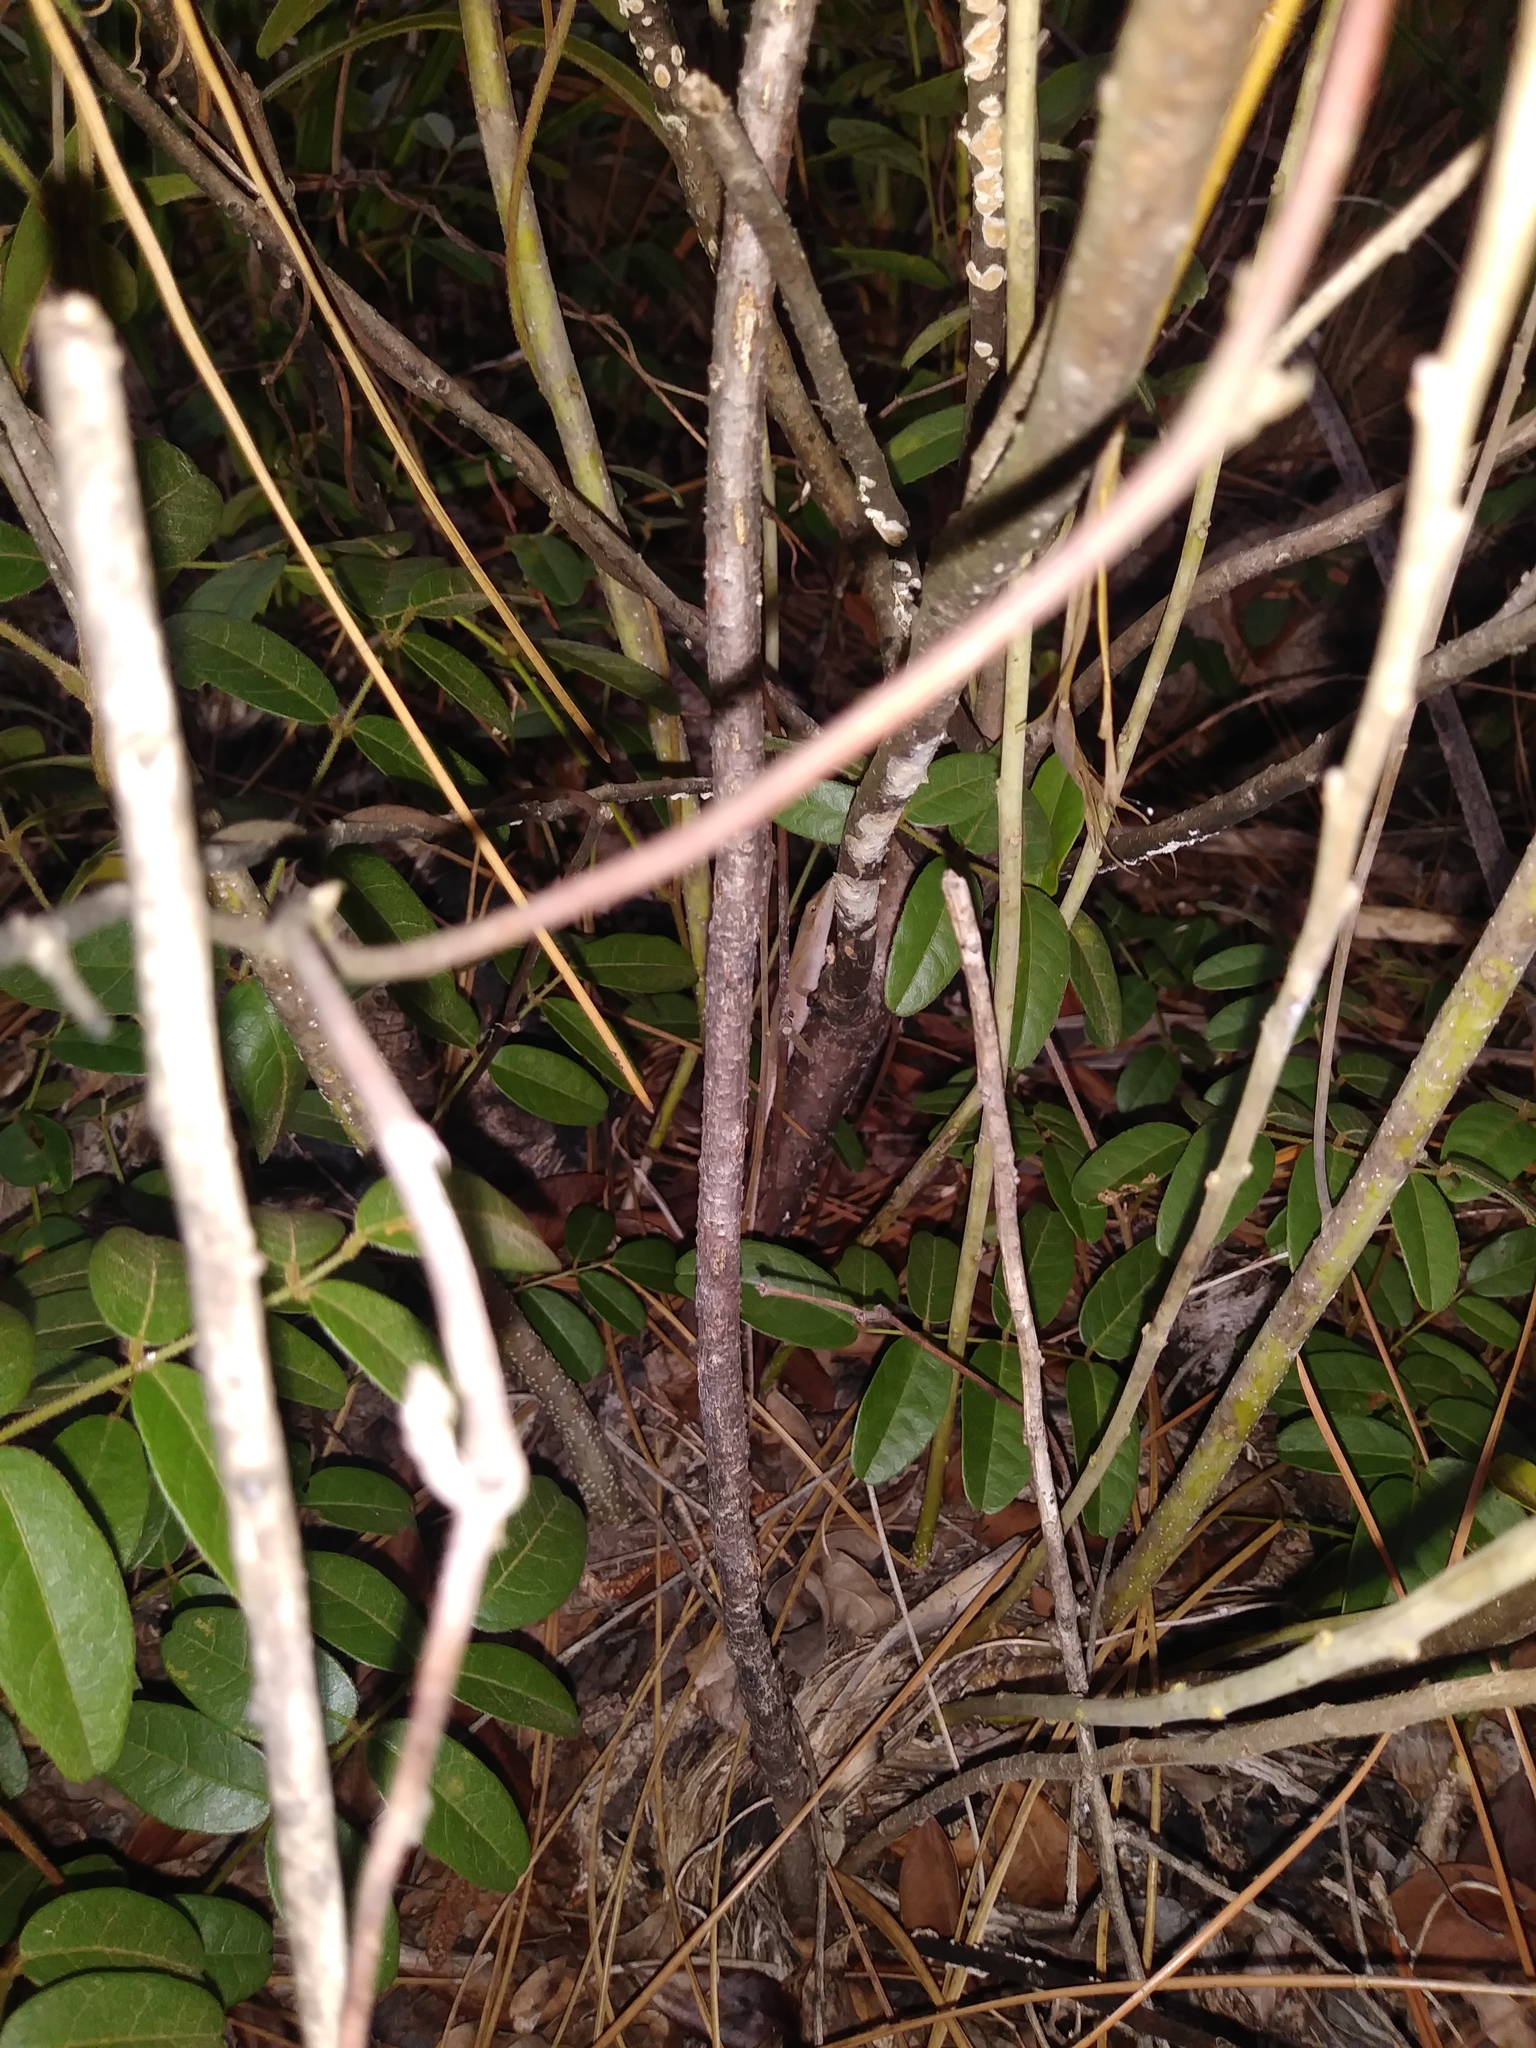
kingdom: Animalia
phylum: Chordata
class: Squamata
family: Dactyloidae
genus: Anolis
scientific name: Anolis carolinensis
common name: Green anole
